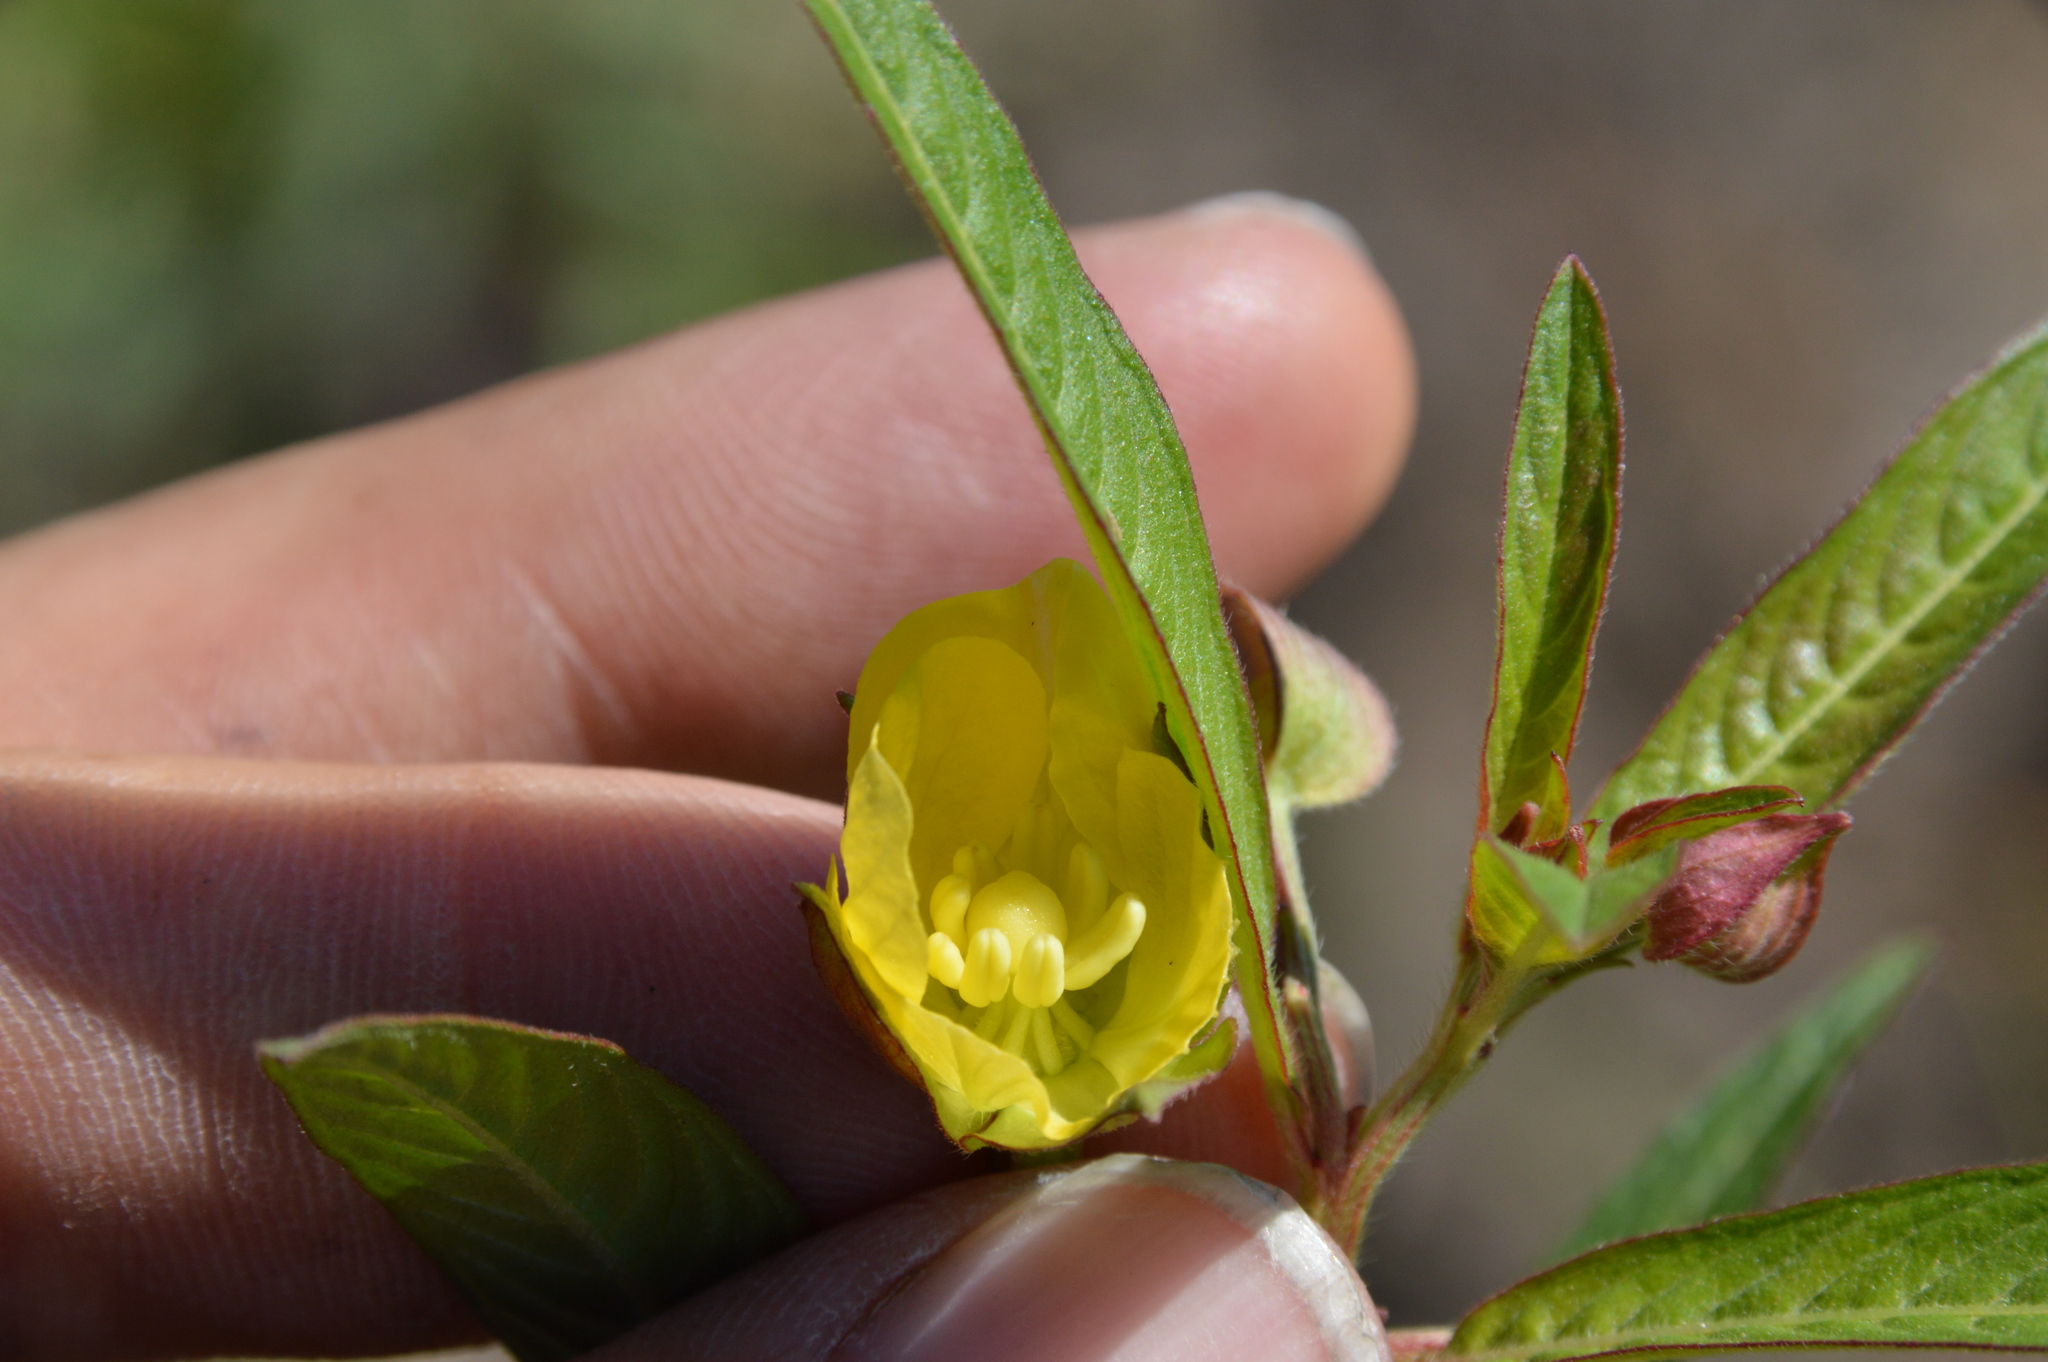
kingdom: Plantae
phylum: Tracheophyta
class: Magnoliopsida
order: Myrtales
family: Onagraceae
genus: Ludwigia
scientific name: Ludwigia octovalvis
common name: Water-primrose
